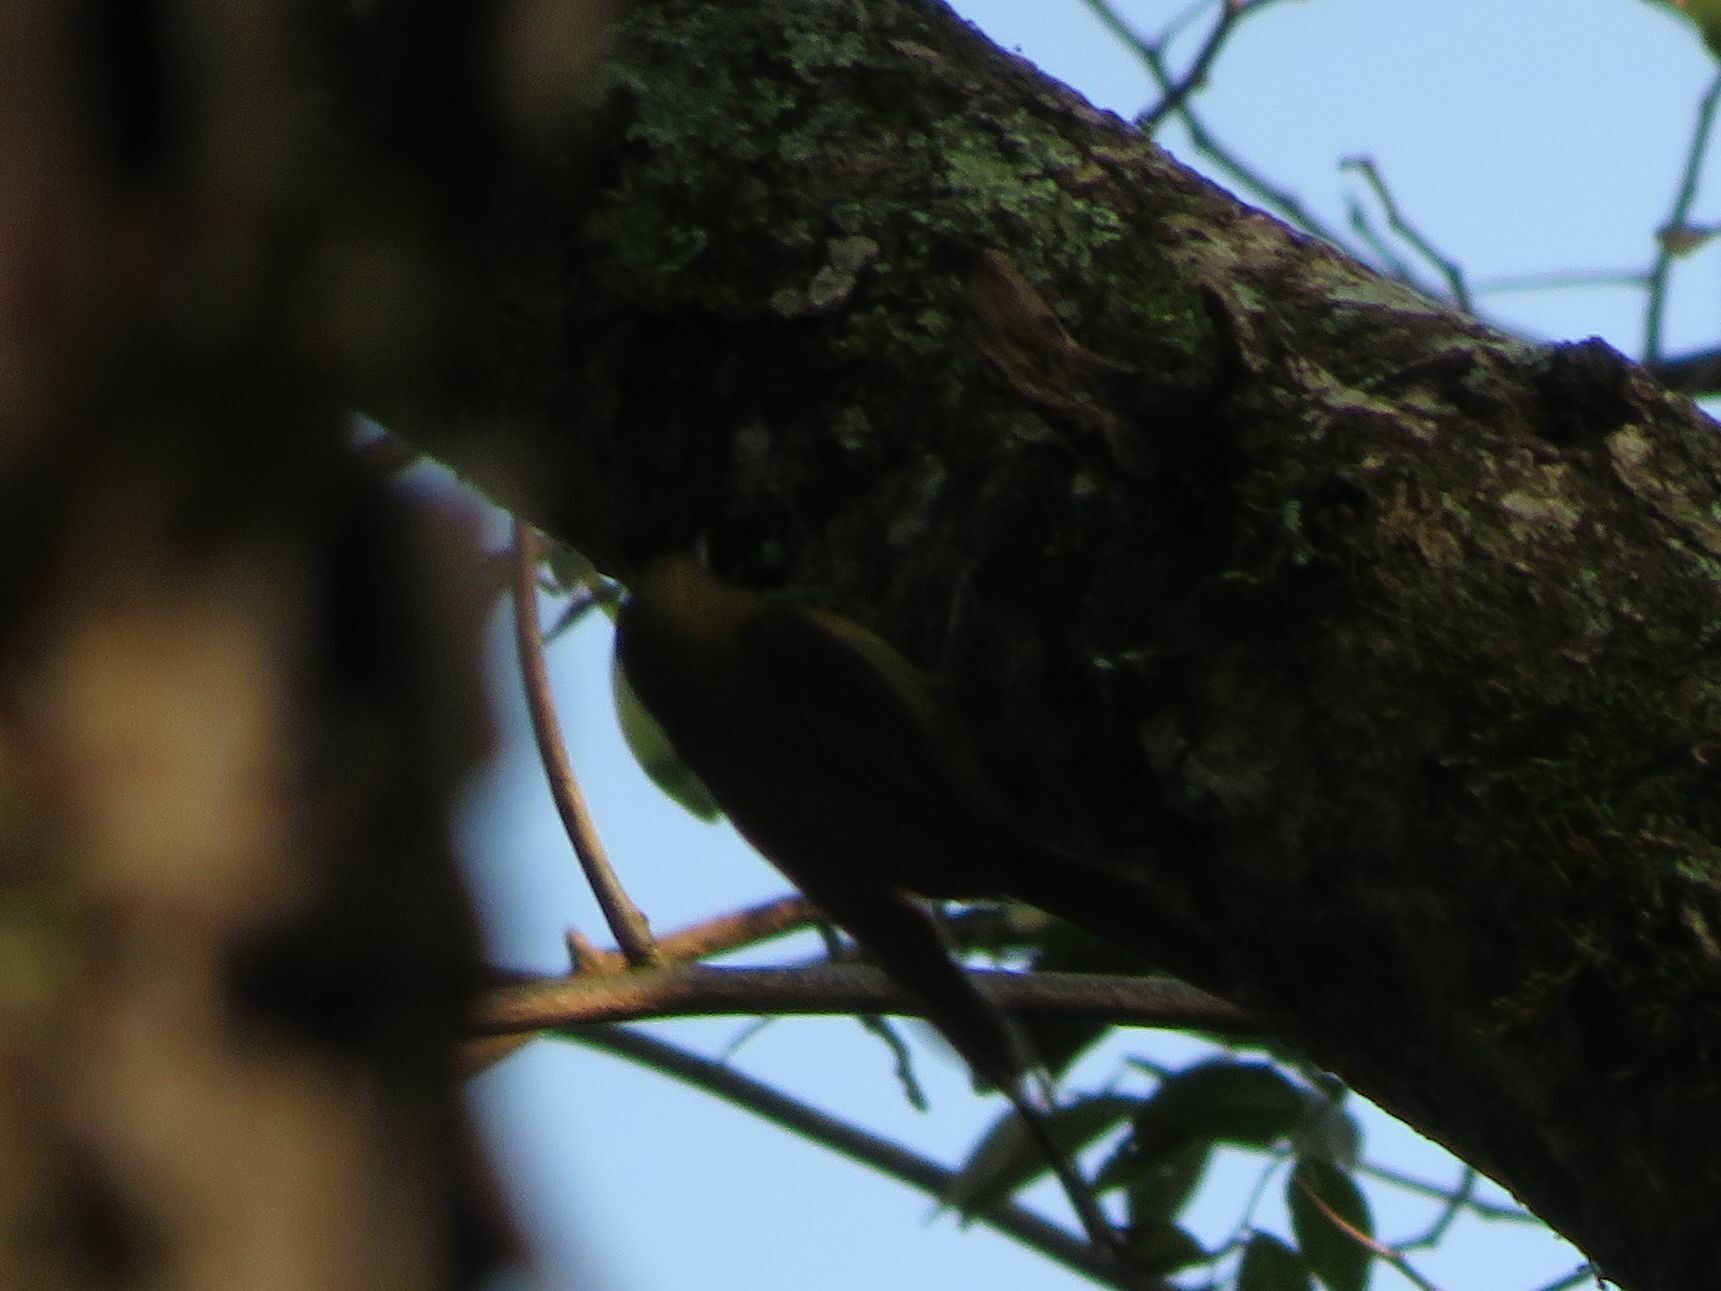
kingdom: Animalia
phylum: Chordata
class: Aves
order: Passeriformes
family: Furnariidae
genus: Sittasomus
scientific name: Sittasomus griseicapillus
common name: Olivaceous woodcreeper
